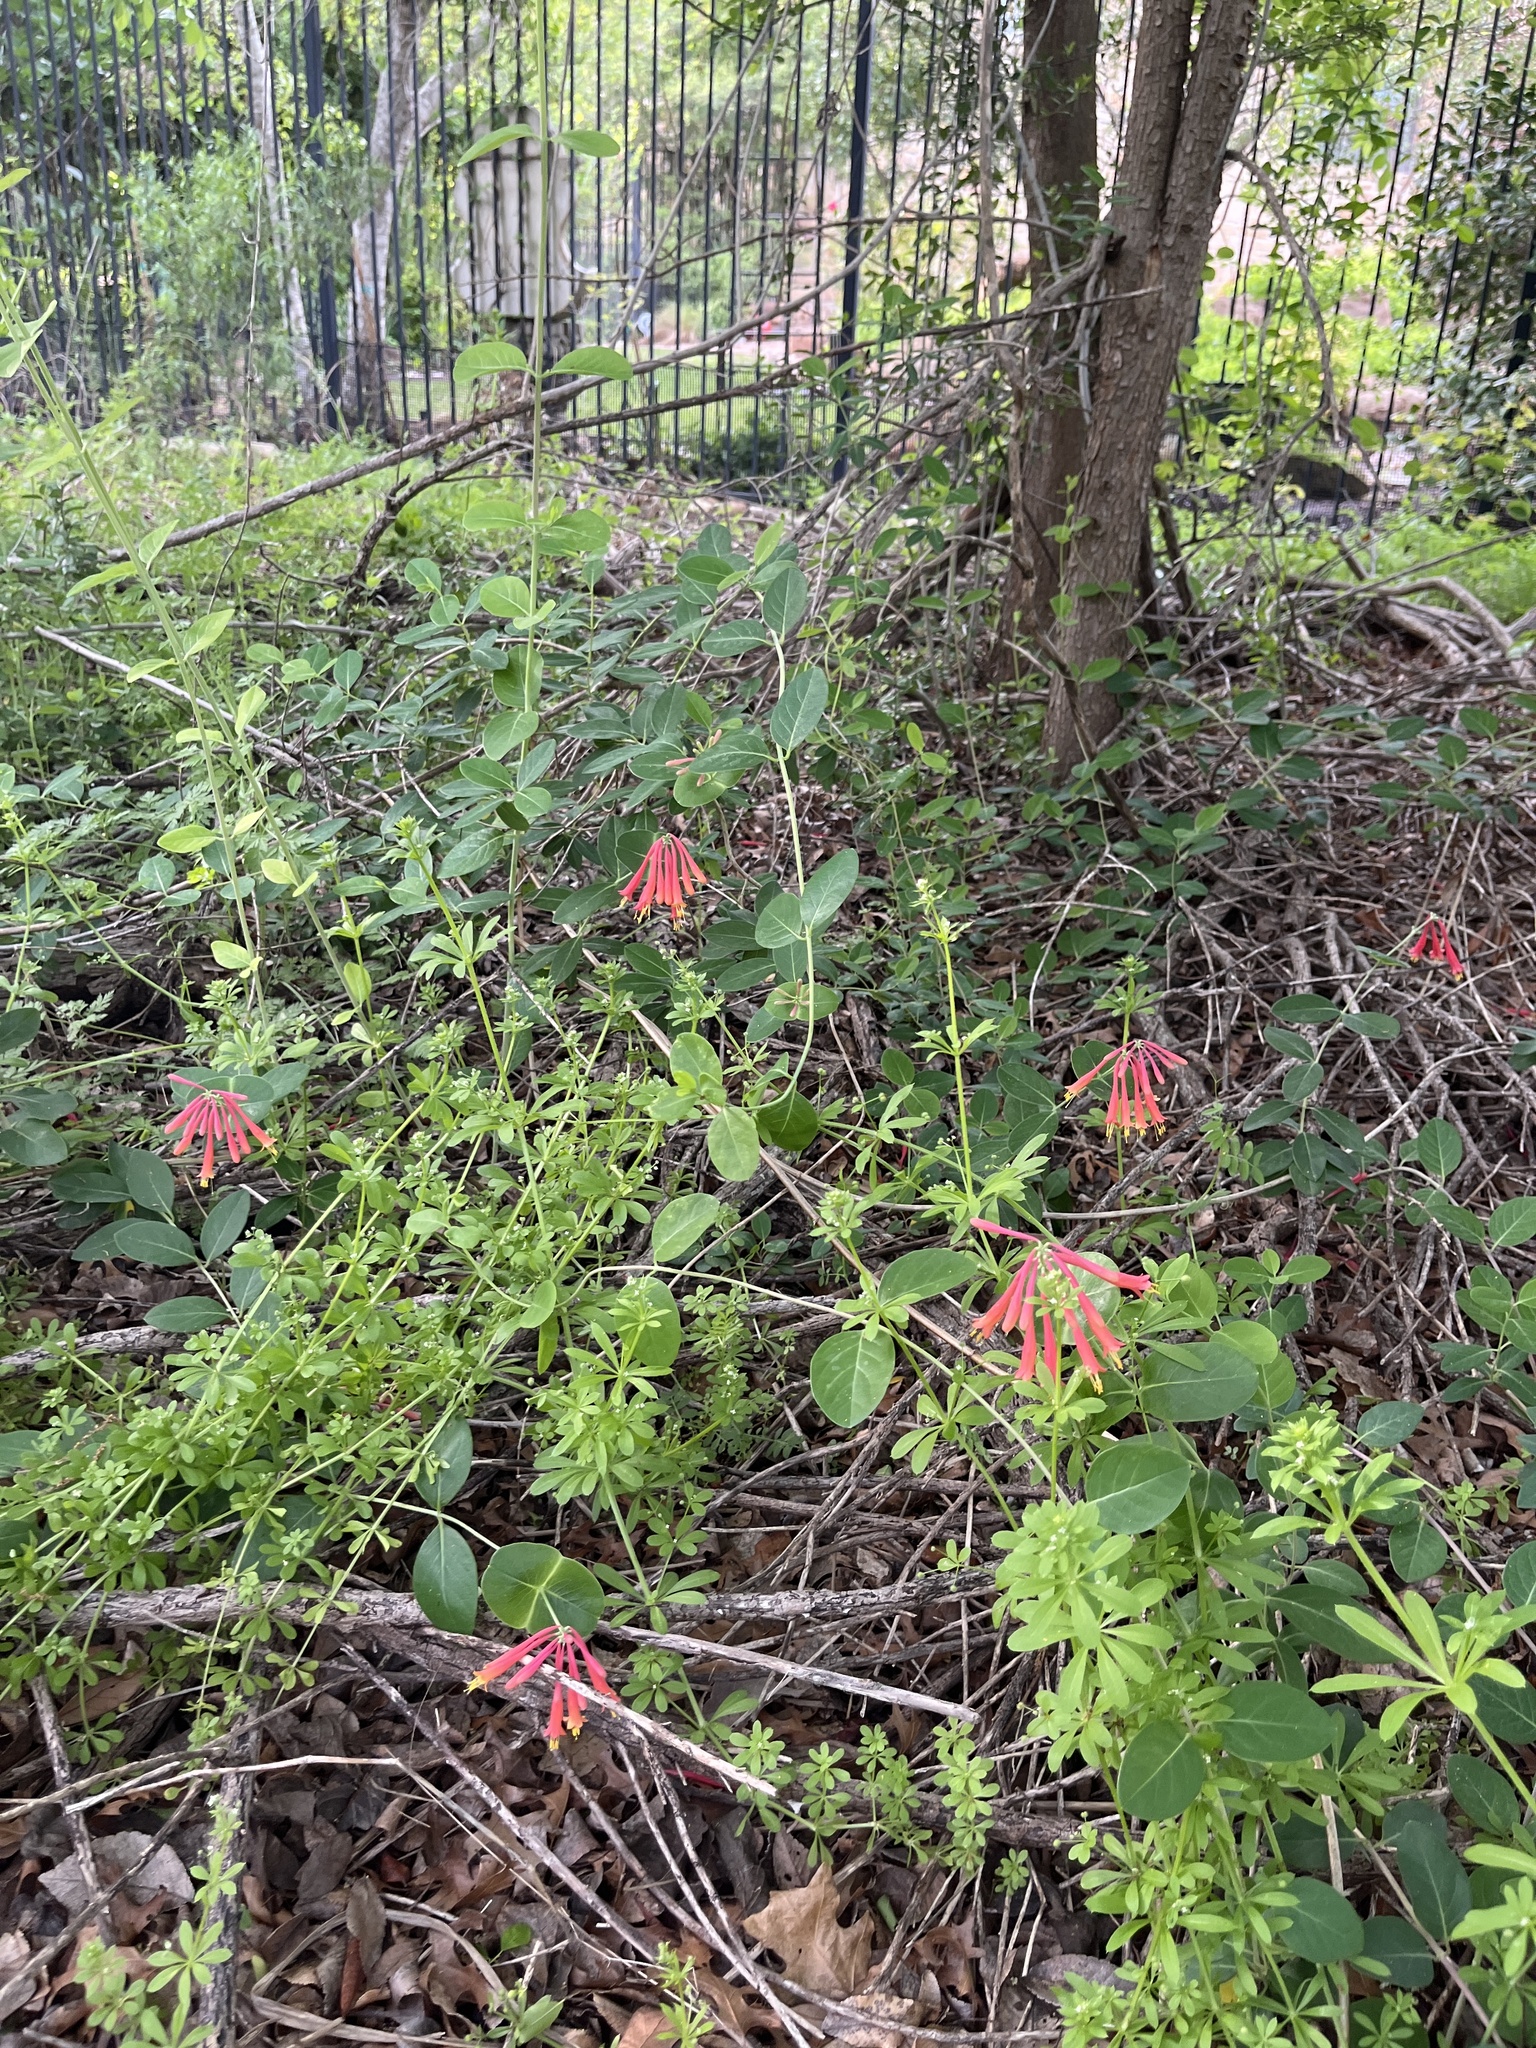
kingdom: Plantae
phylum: Tracheophyta
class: Magnoliopsida
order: Dipsacales
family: Caprifoliaceae
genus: Lonicera
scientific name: Lonicera sempervirens
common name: Coral honeysuckle
